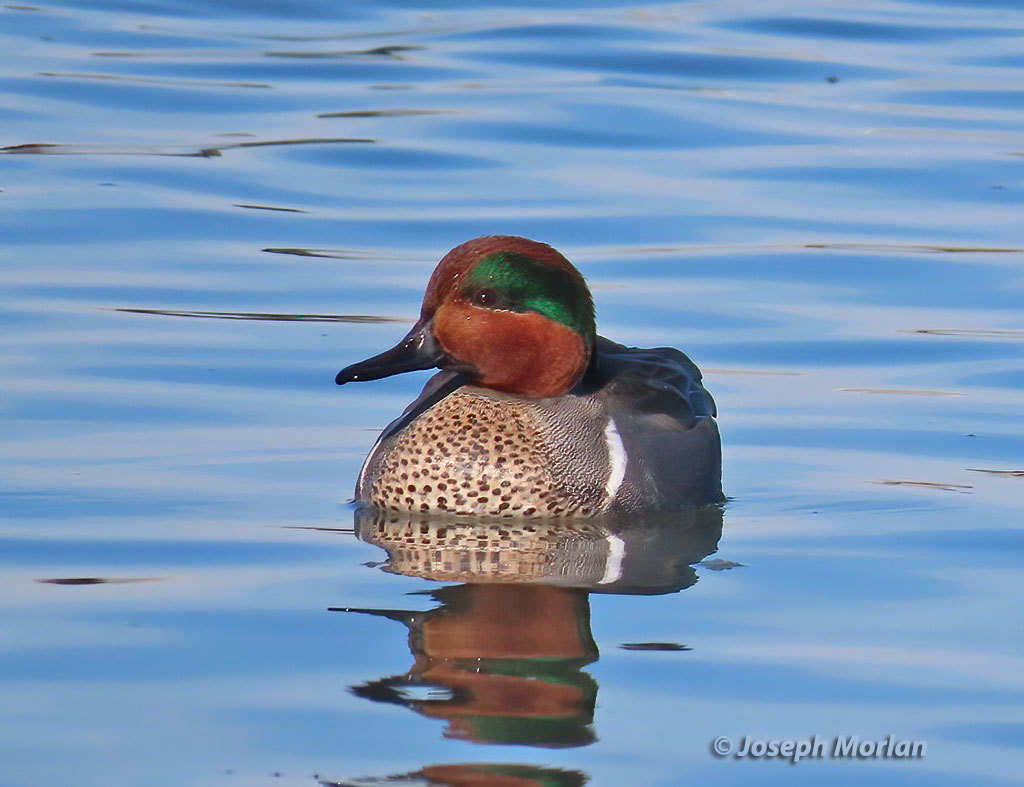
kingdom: Animalia
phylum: Chordata
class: Aves
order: Anseriformes
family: Anatidae
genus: Anas
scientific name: Anas crecca
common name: Eurasian teal
